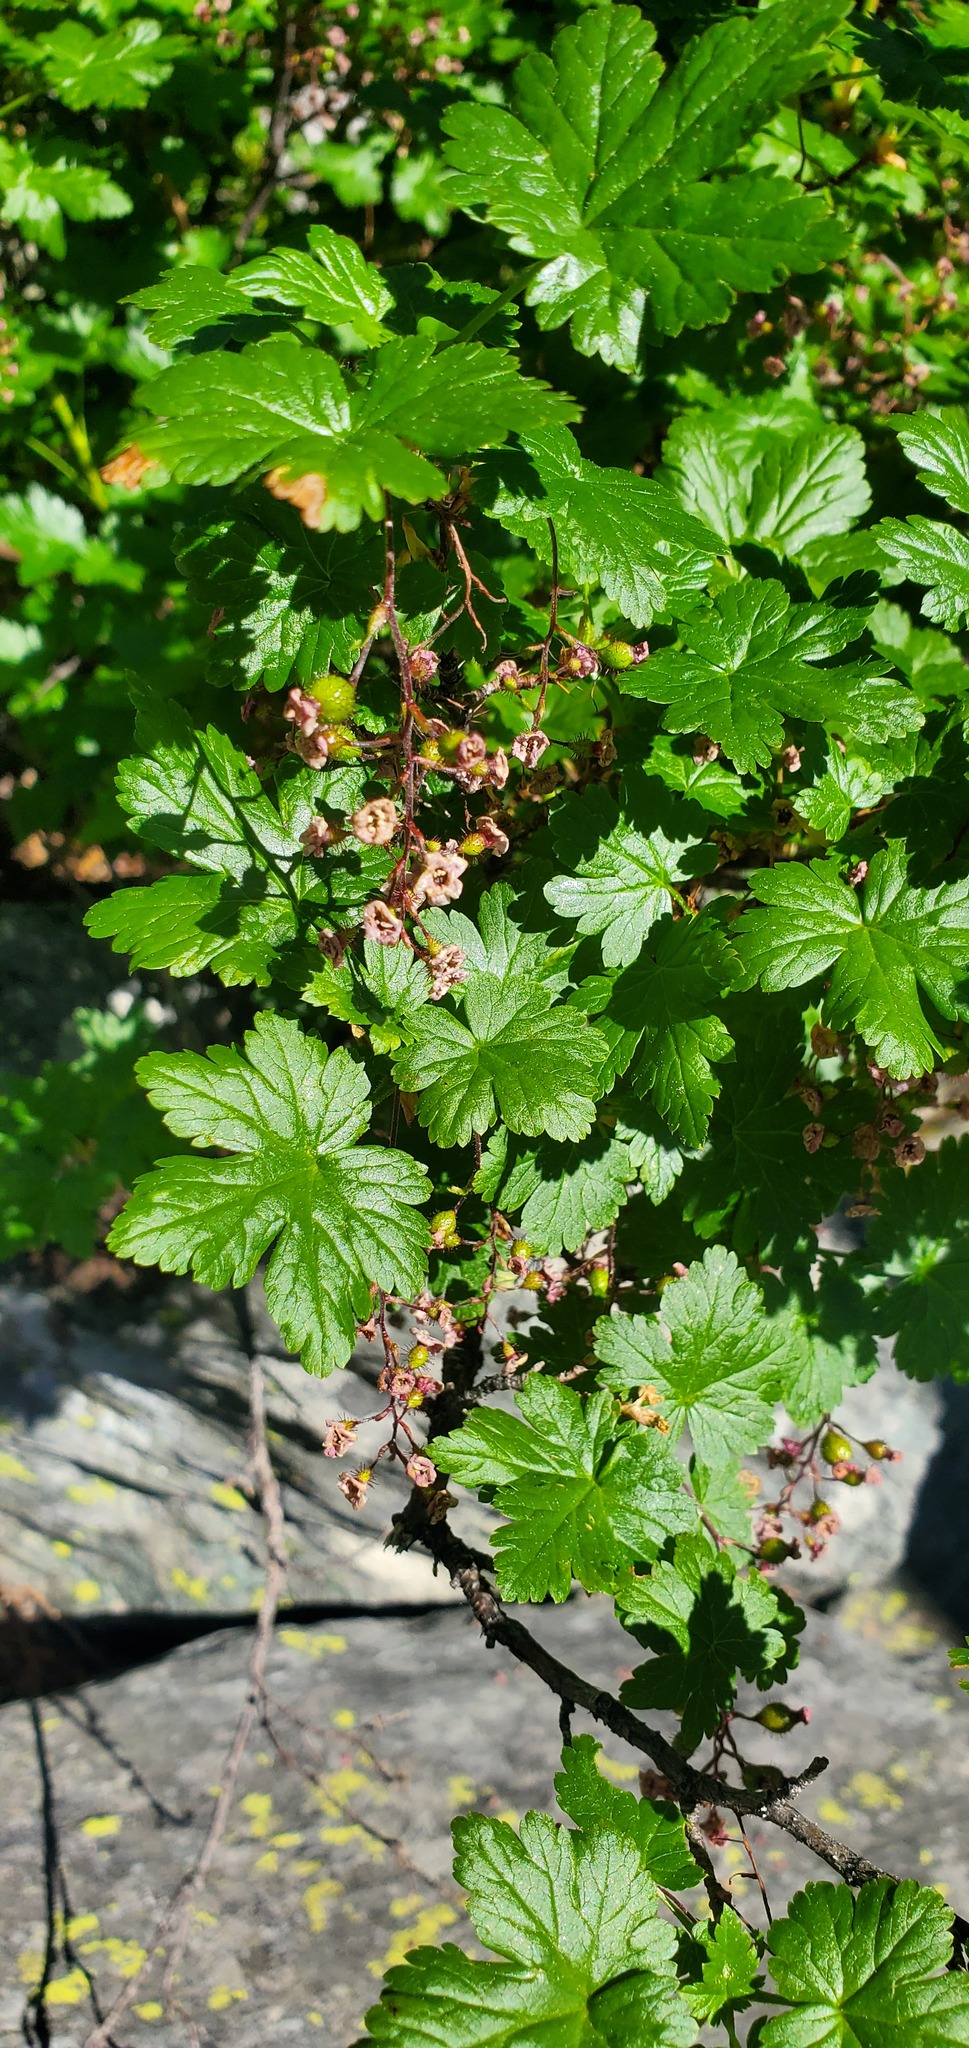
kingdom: Plantae
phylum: Tracheophyta
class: Magnoliopsida
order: Saxifragales
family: Grossulariaceae
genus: Ribes
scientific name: Ribes lacustre
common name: Black gooseberry
